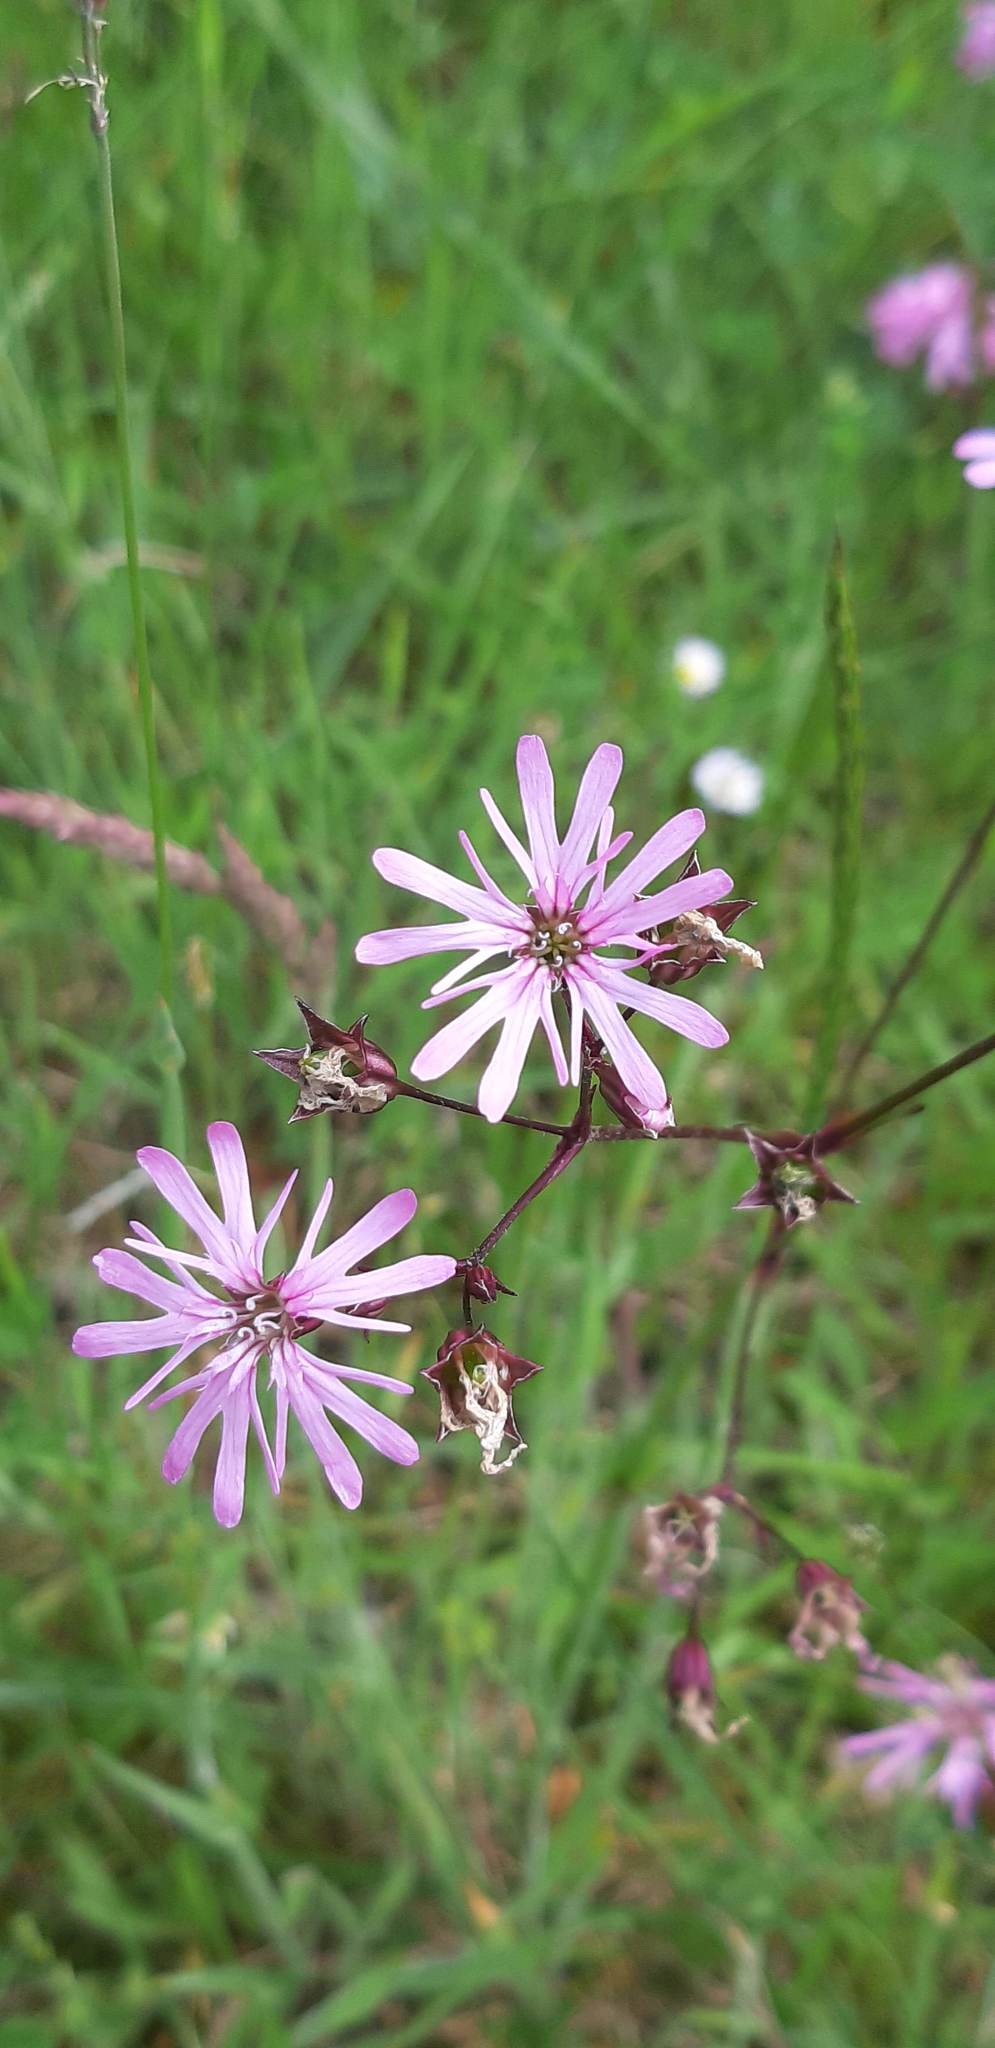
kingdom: Plantae
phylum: Tracheophyta
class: Magnoliopsida
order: Caryophyllales
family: Caryophyllaceae
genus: Silene
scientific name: Silene flos-cuculi
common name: Ragged-robin
